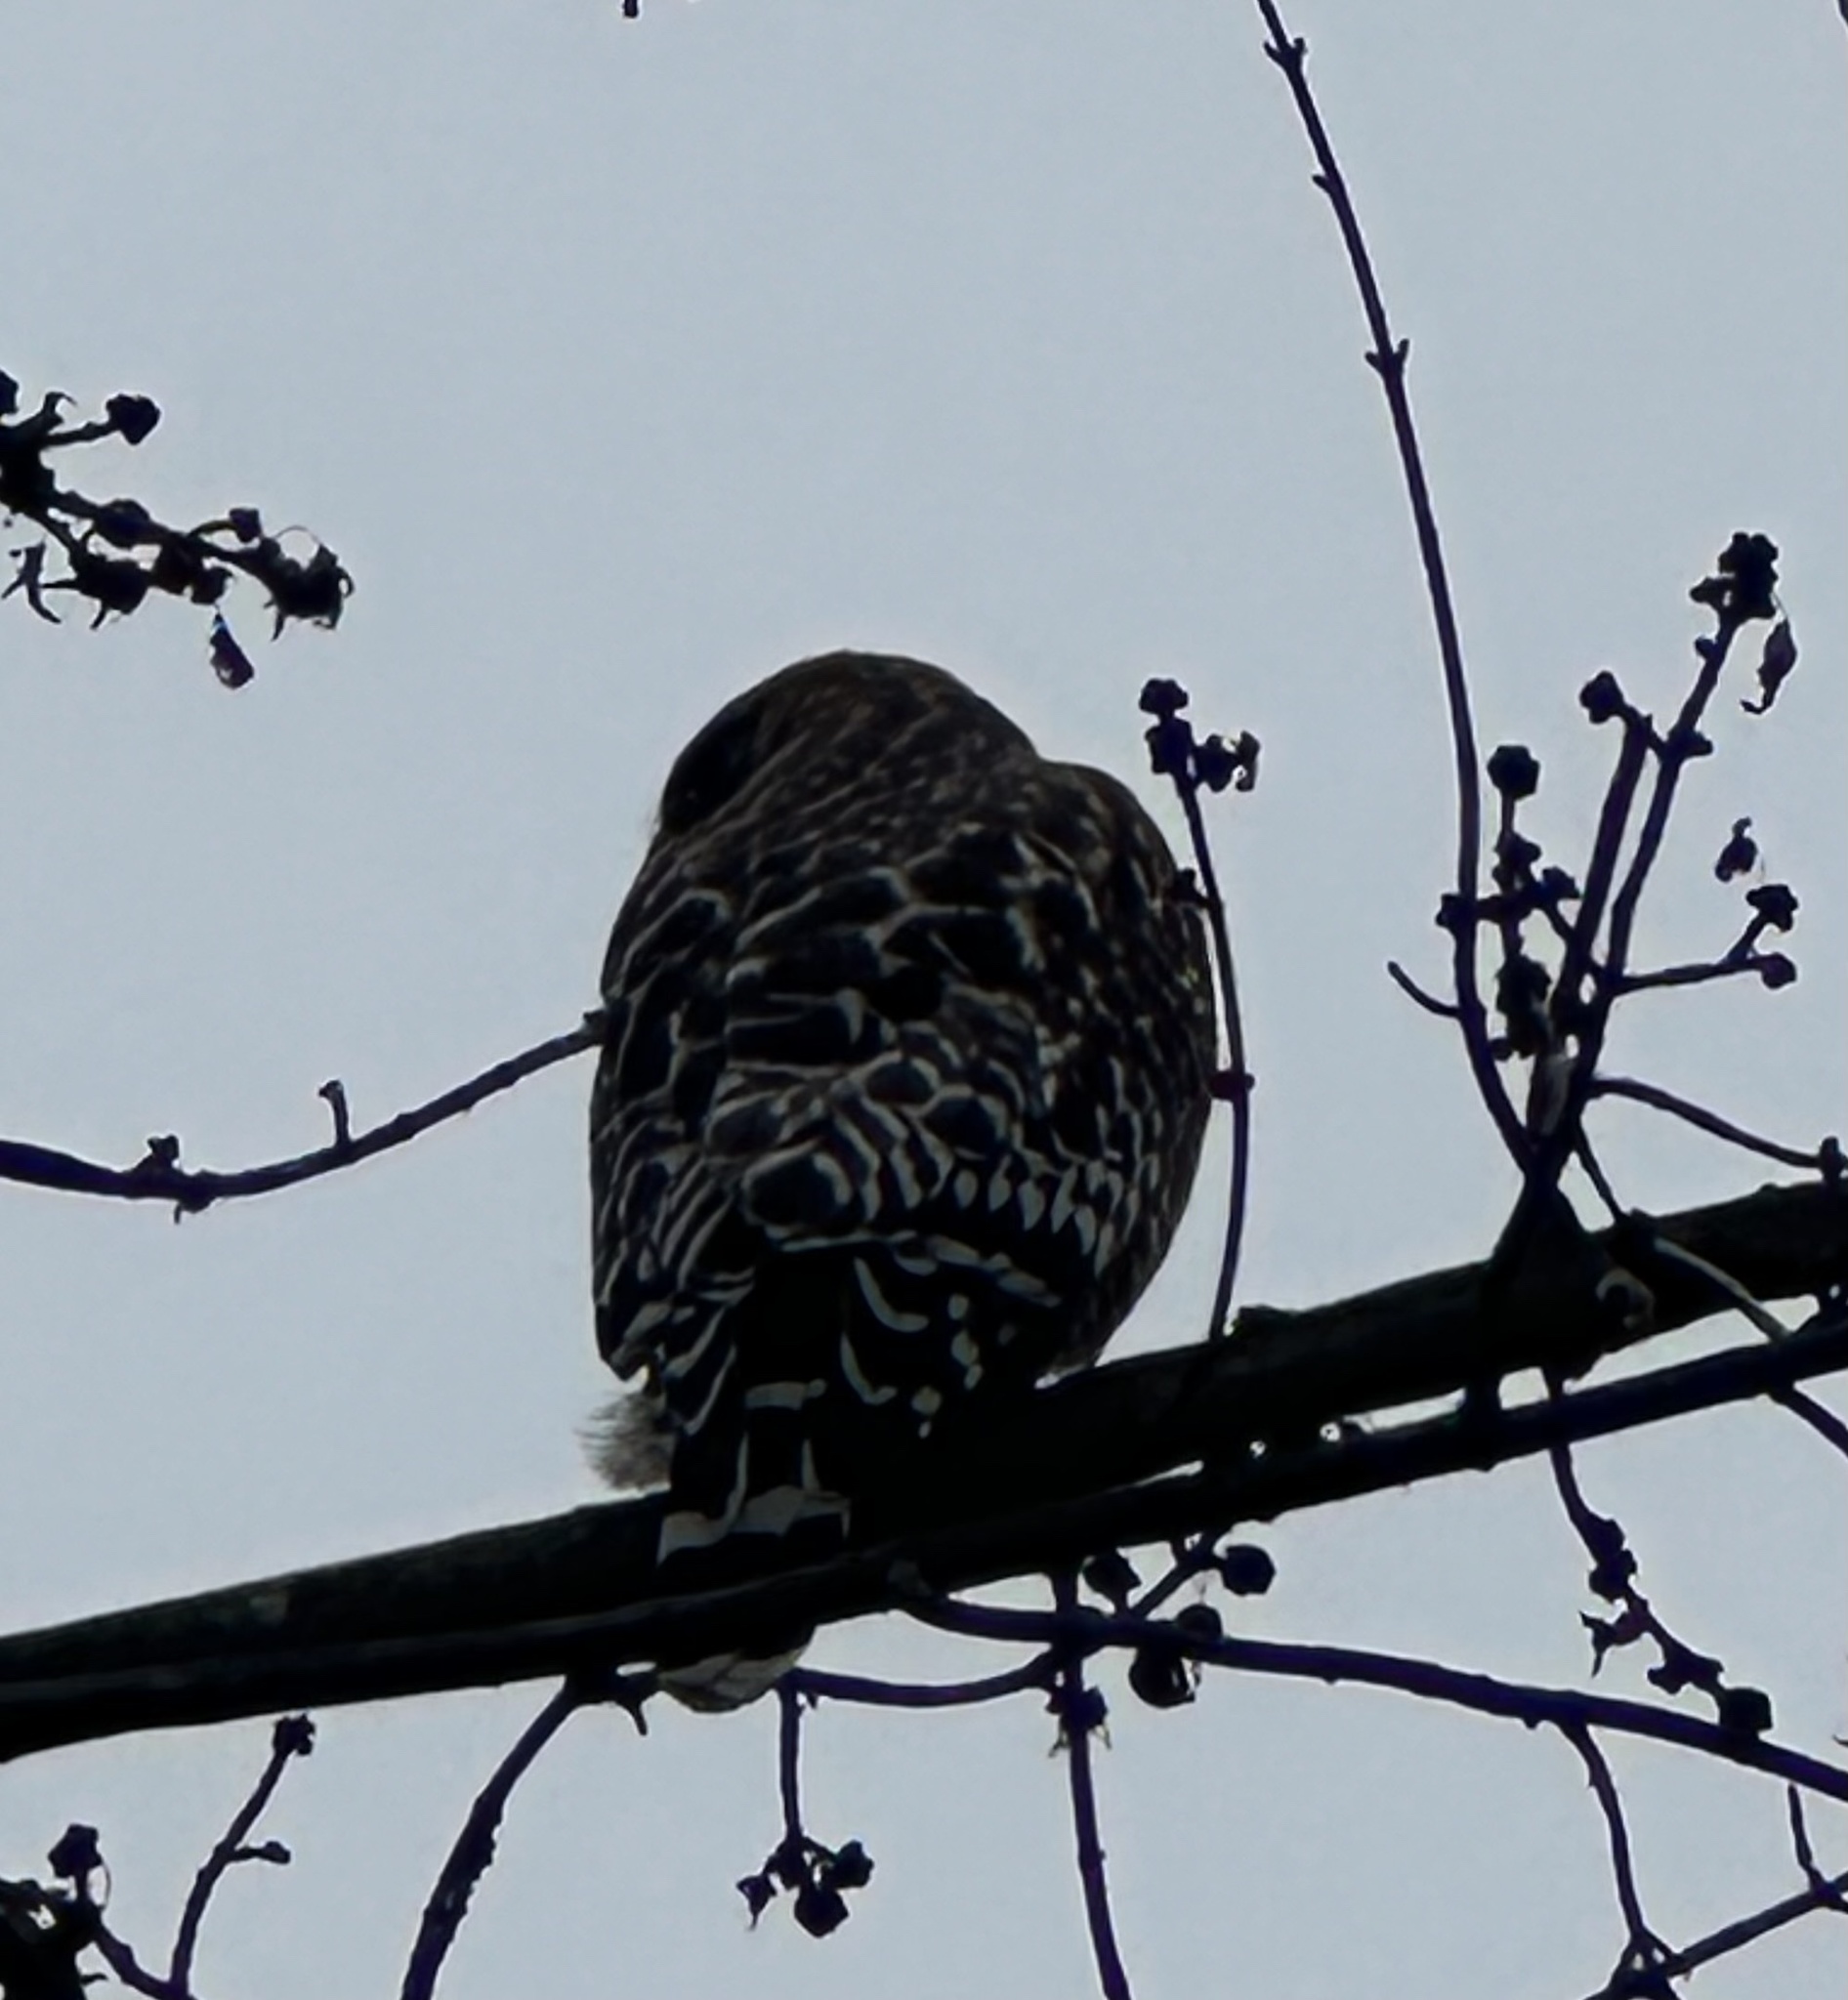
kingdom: Animalia
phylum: Chordata
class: Aves
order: Accipitriformes
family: Accipitridae
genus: Buteo
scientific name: Buteo lineatus
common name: Red-shouldered hawk
